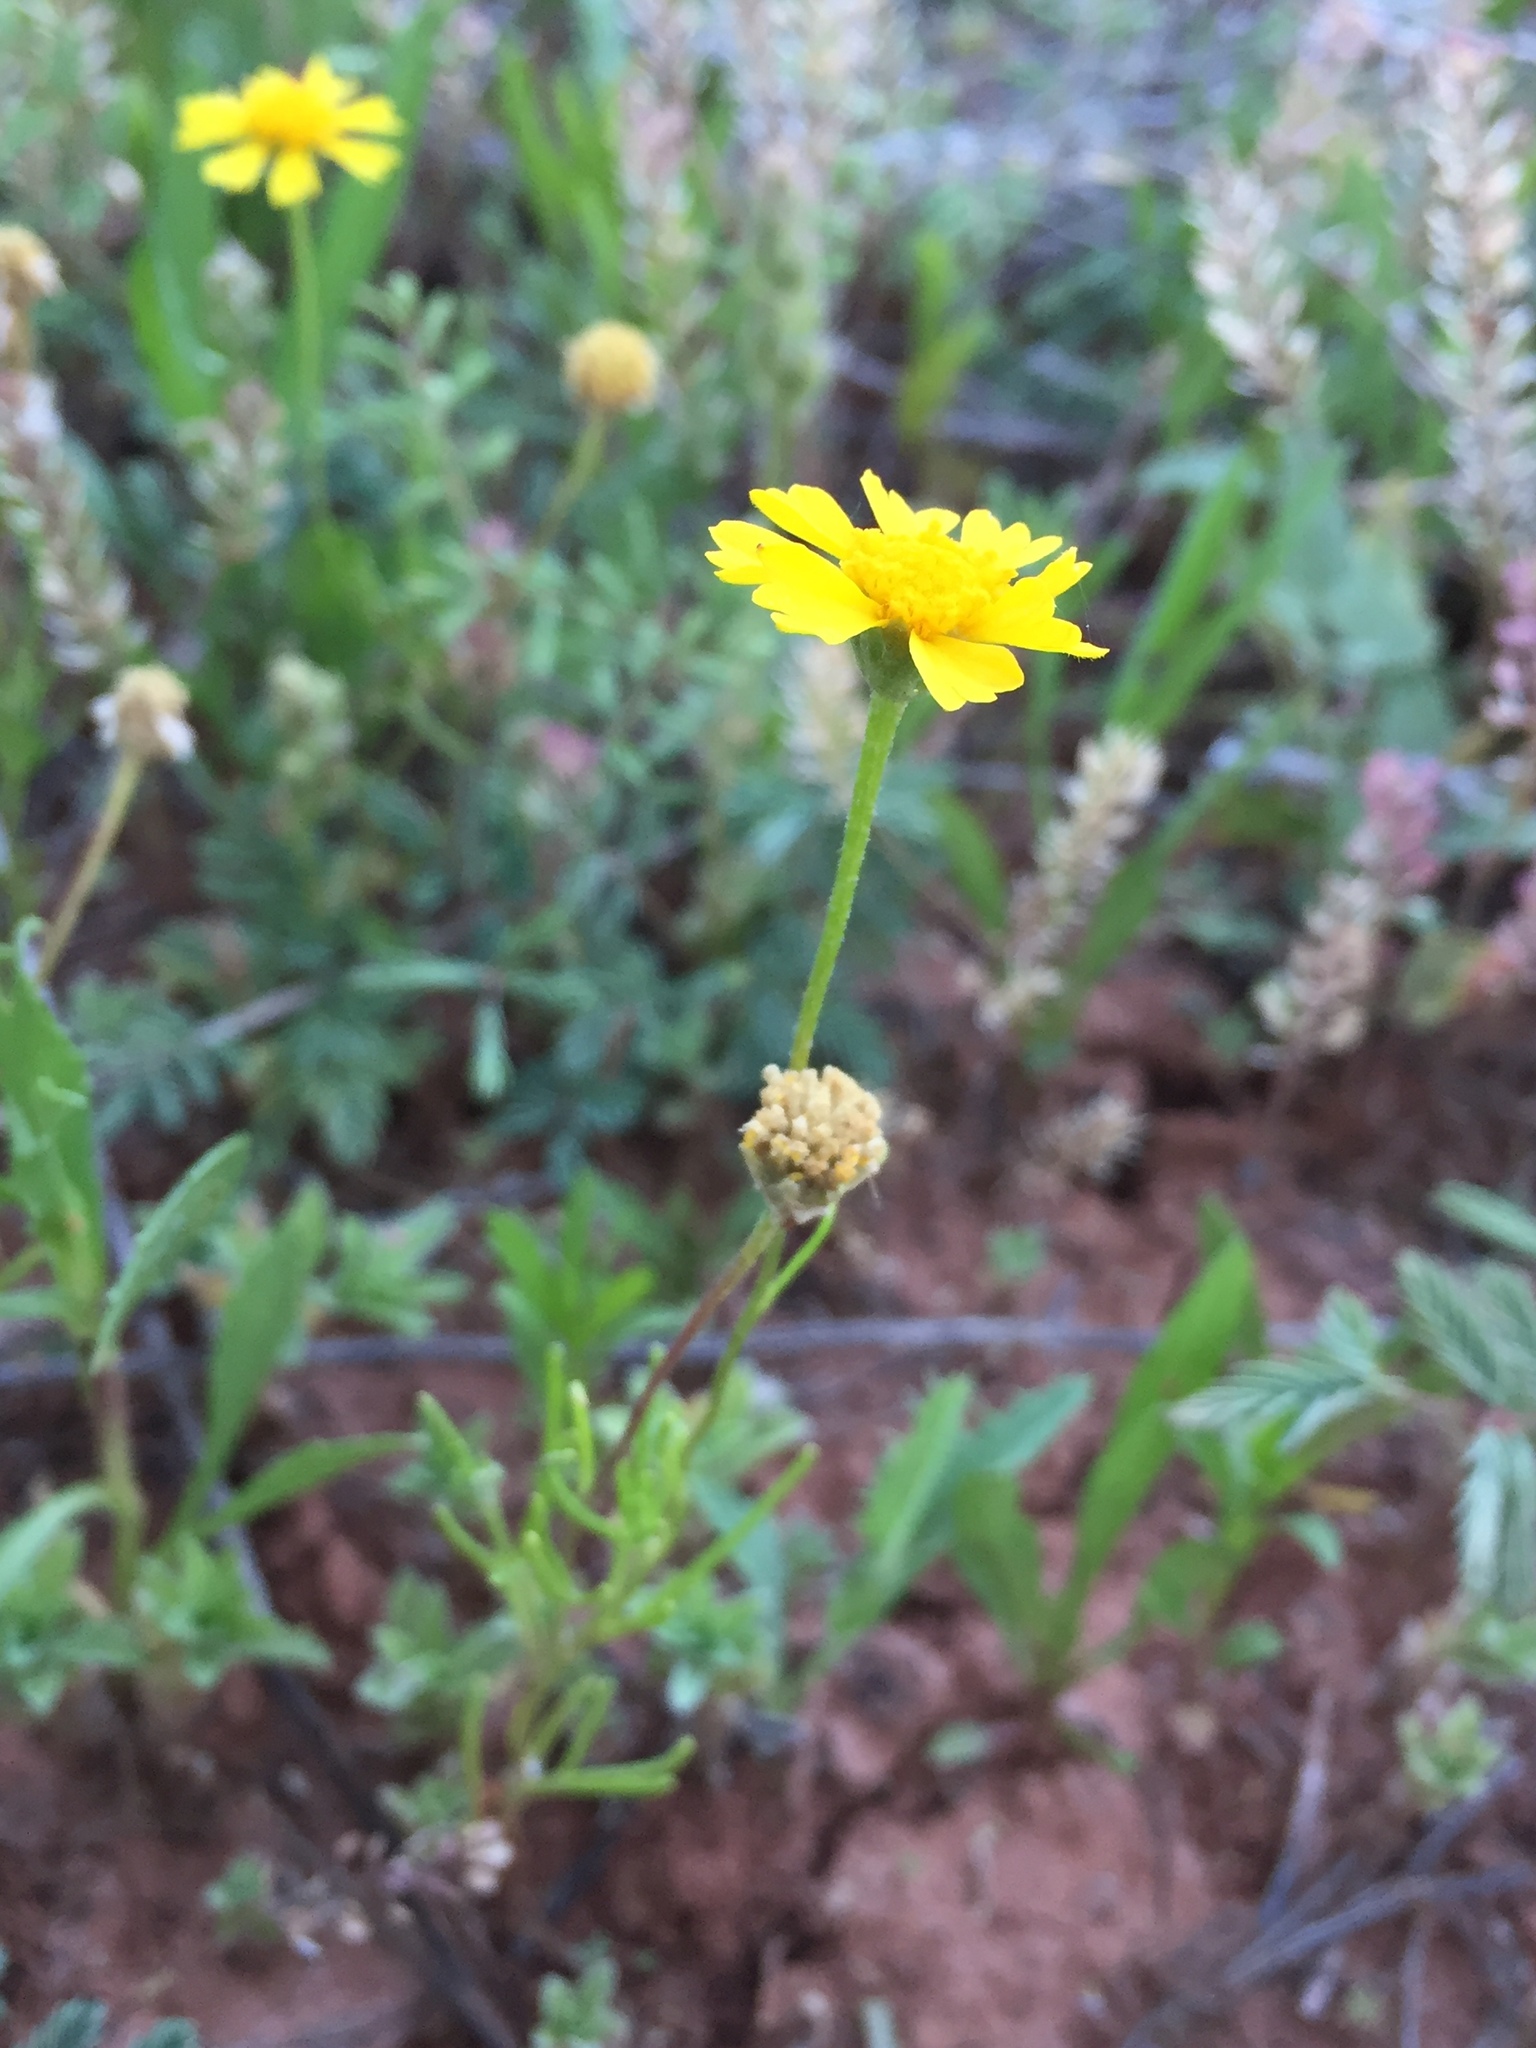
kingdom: Plantae
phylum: Tracheophyta
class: Magnoliopsida
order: Asterales
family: Asteraceae
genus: Hymenoxys
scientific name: Hymenoxys odorata
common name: Bitter rubberweed
